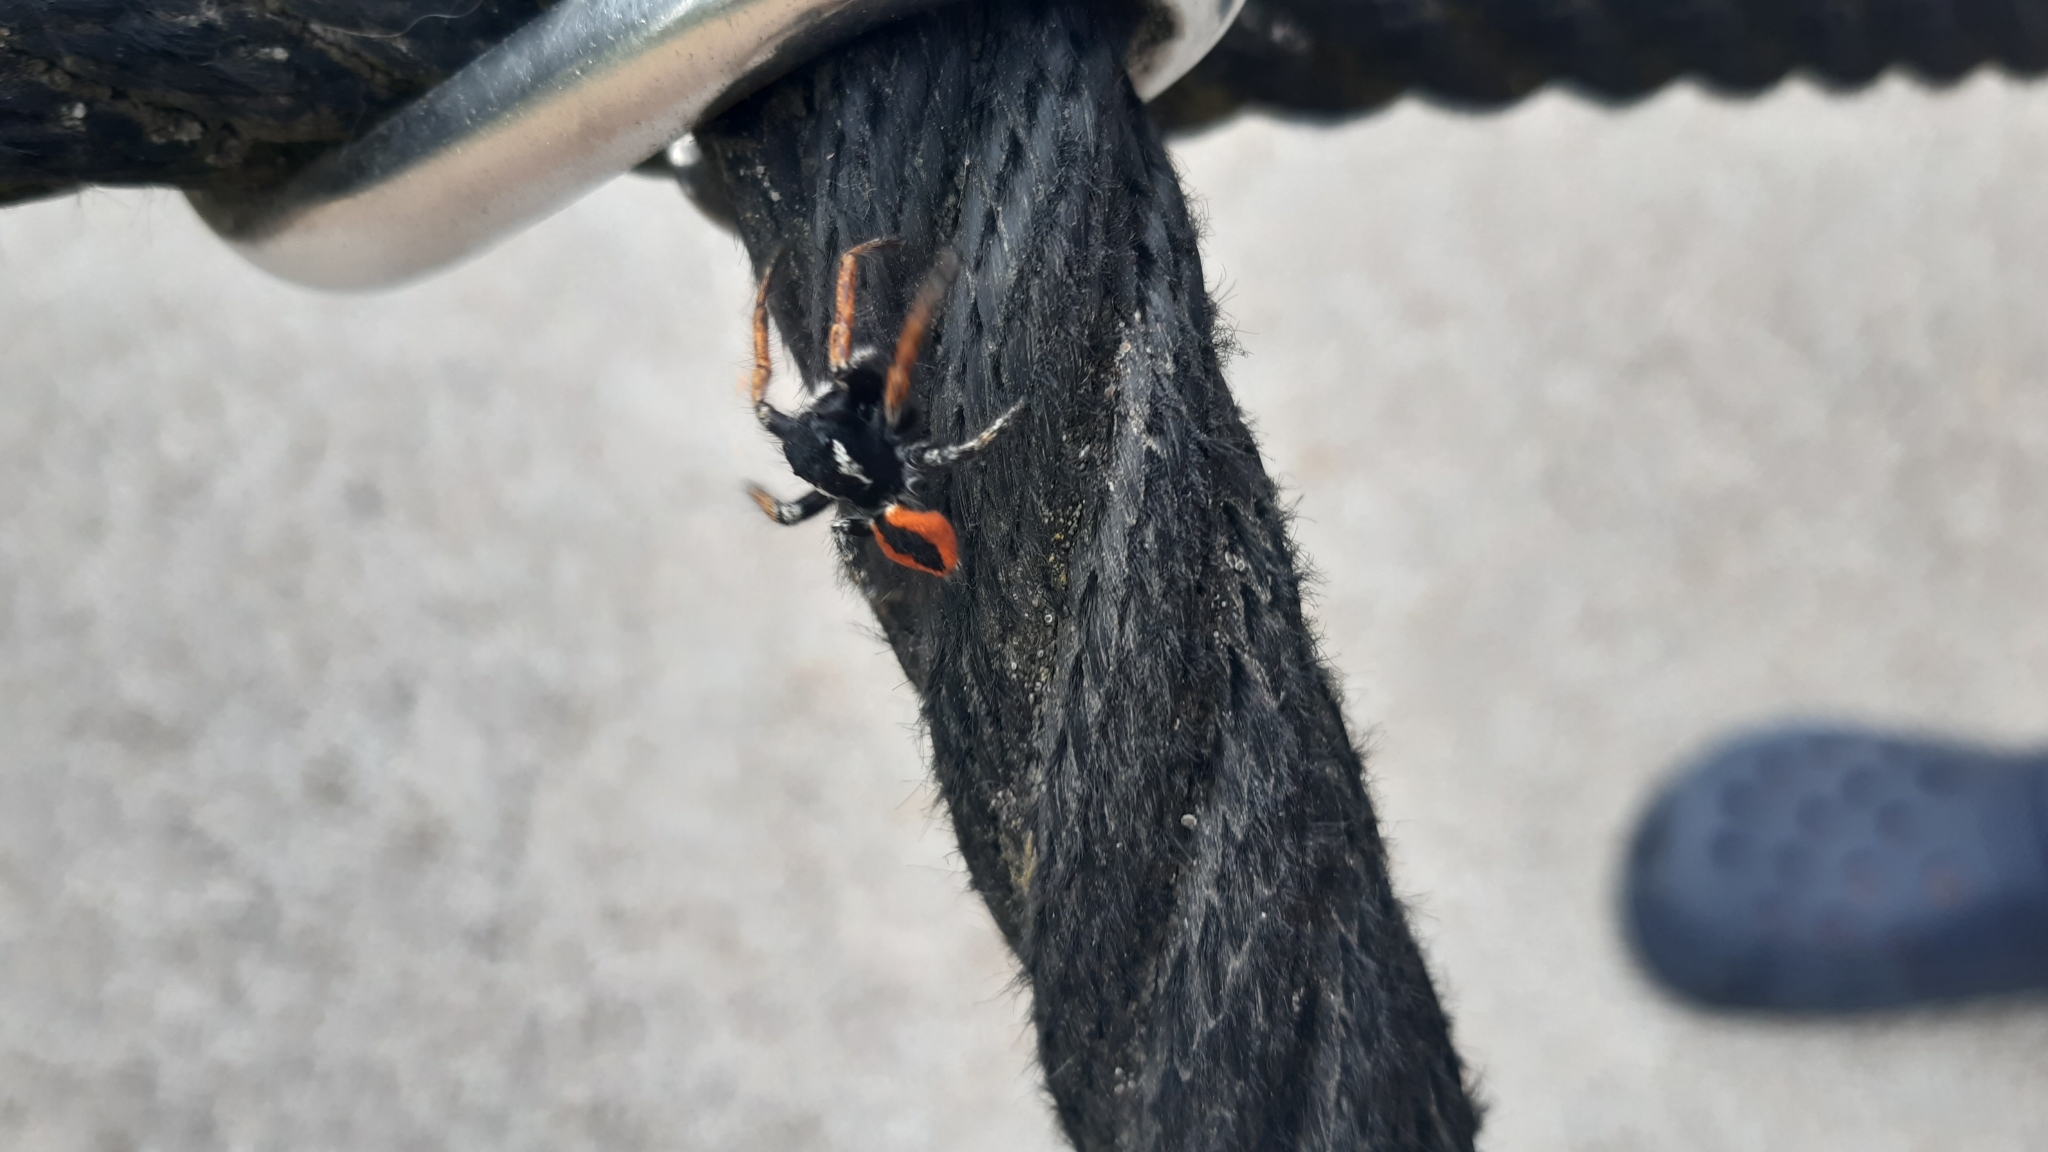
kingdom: Animalia
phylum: Arthropoda
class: Arachnida
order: Araneae
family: Salticidae
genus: Philaeus
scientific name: Philaeus chrysops
